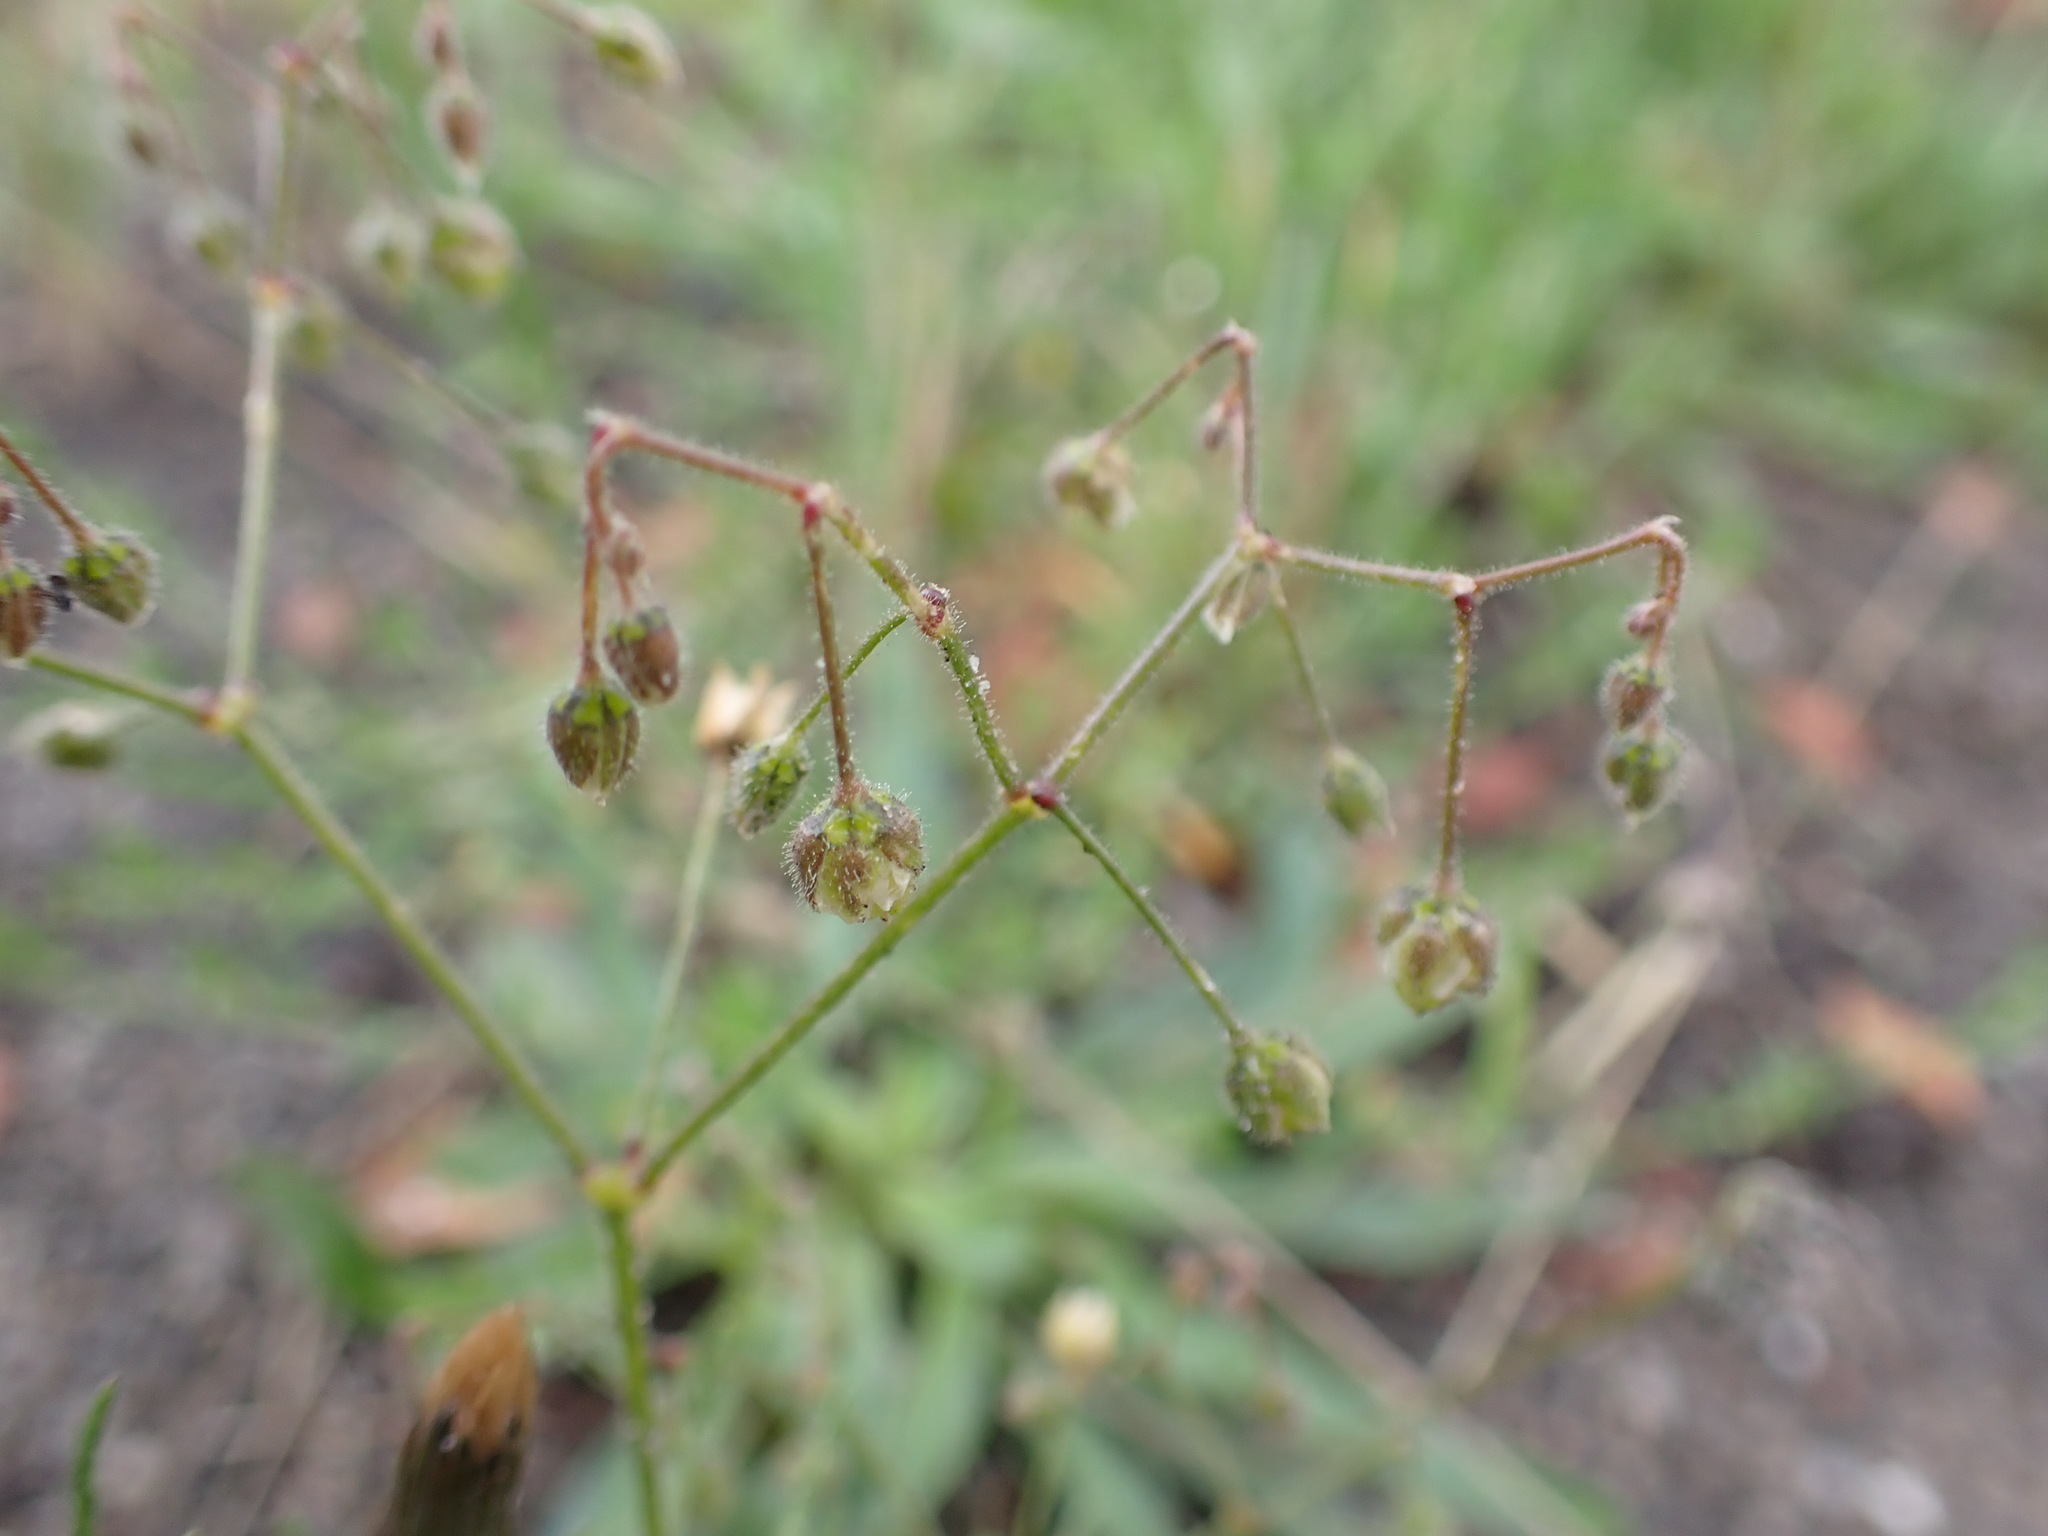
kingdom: Plantae
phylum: Tracheophyta
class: Magnoliopsida
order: Caryophyllales
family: Caryophyllaceae
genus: Spergula
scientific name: Spergula arvensis
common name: Corn spurrey
